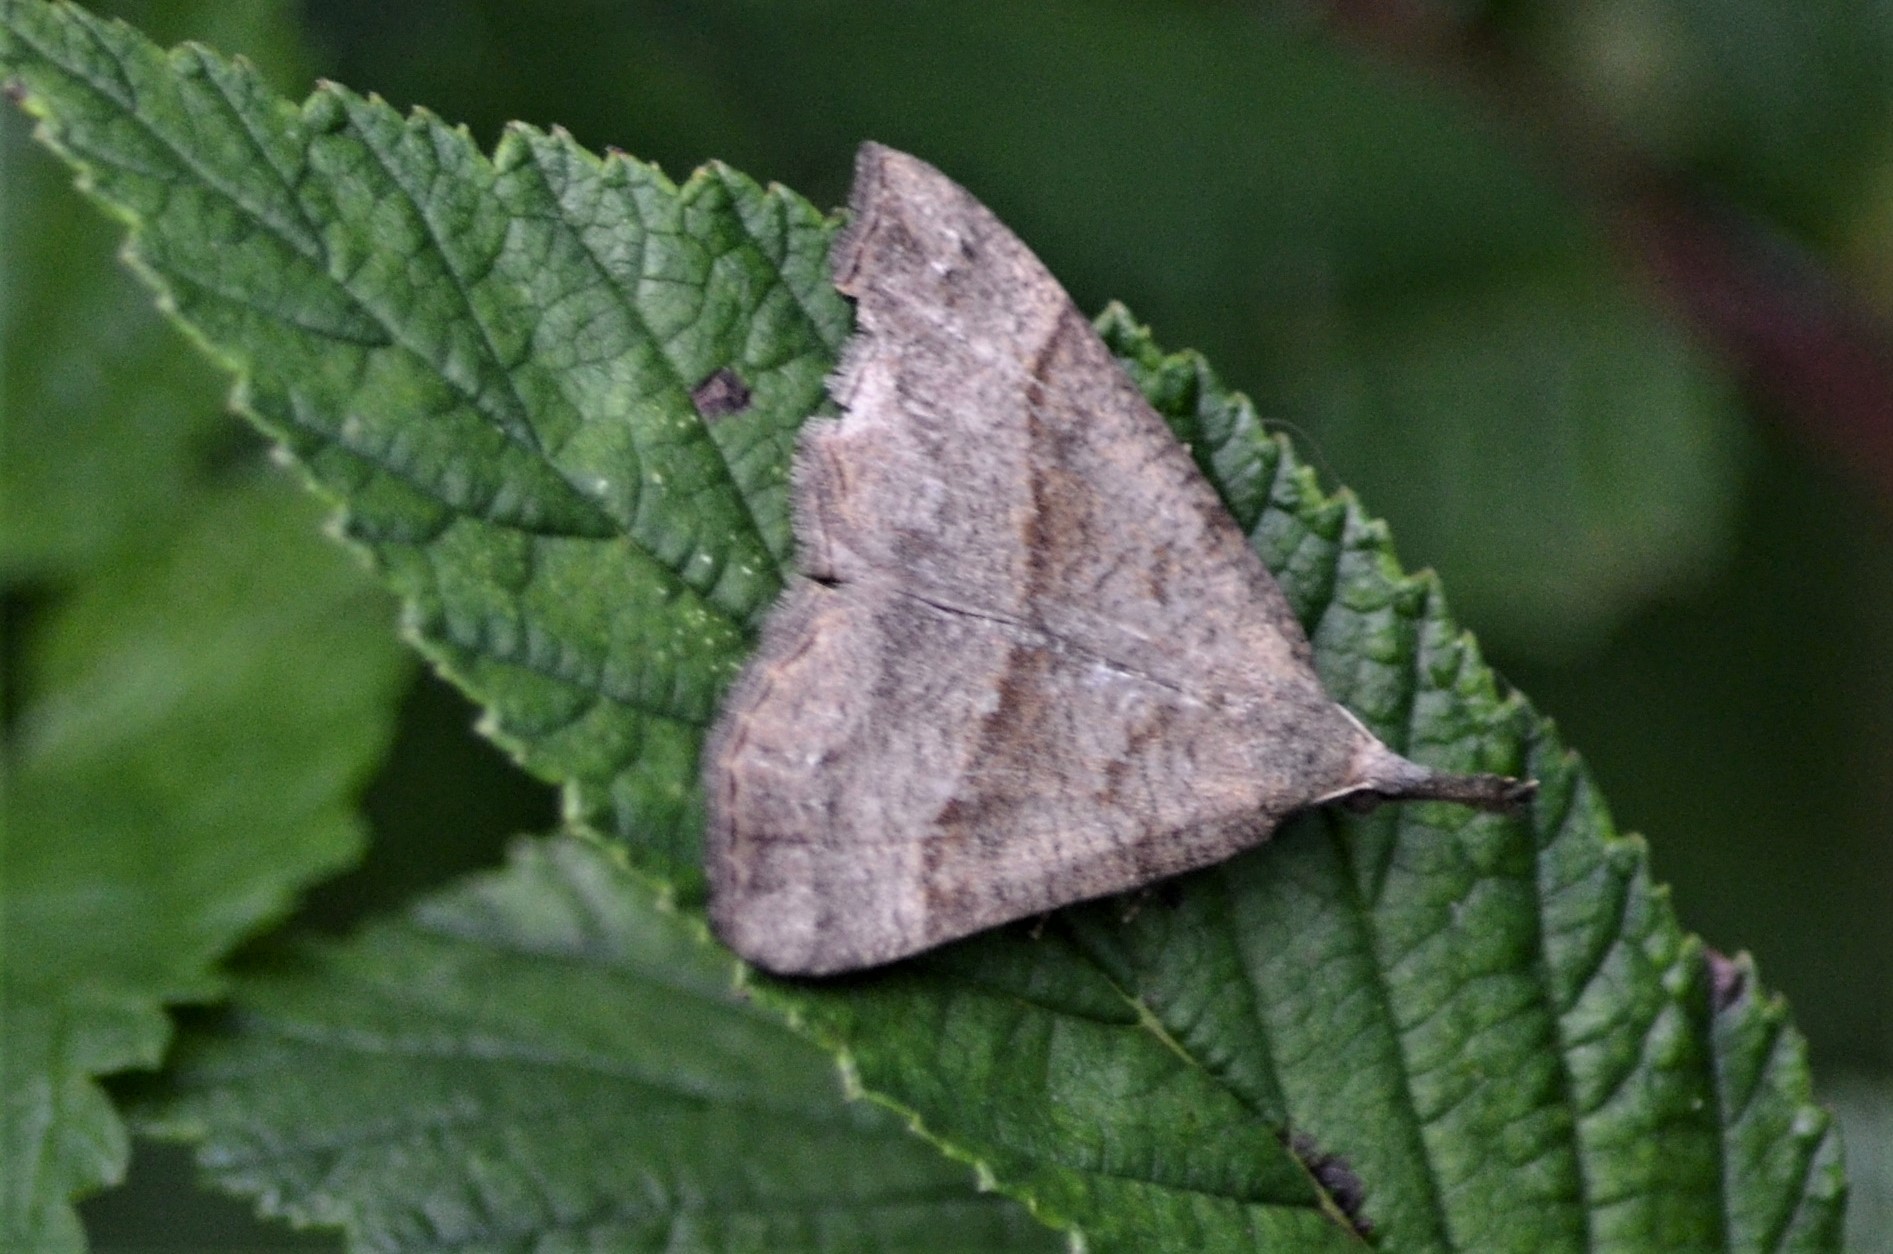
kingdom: Animalia
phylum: Arthropoda
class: Insecta
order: Lepidoptera
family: Erebidae
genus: Hypena
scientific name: Hypena proboscidalis
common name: Snout
